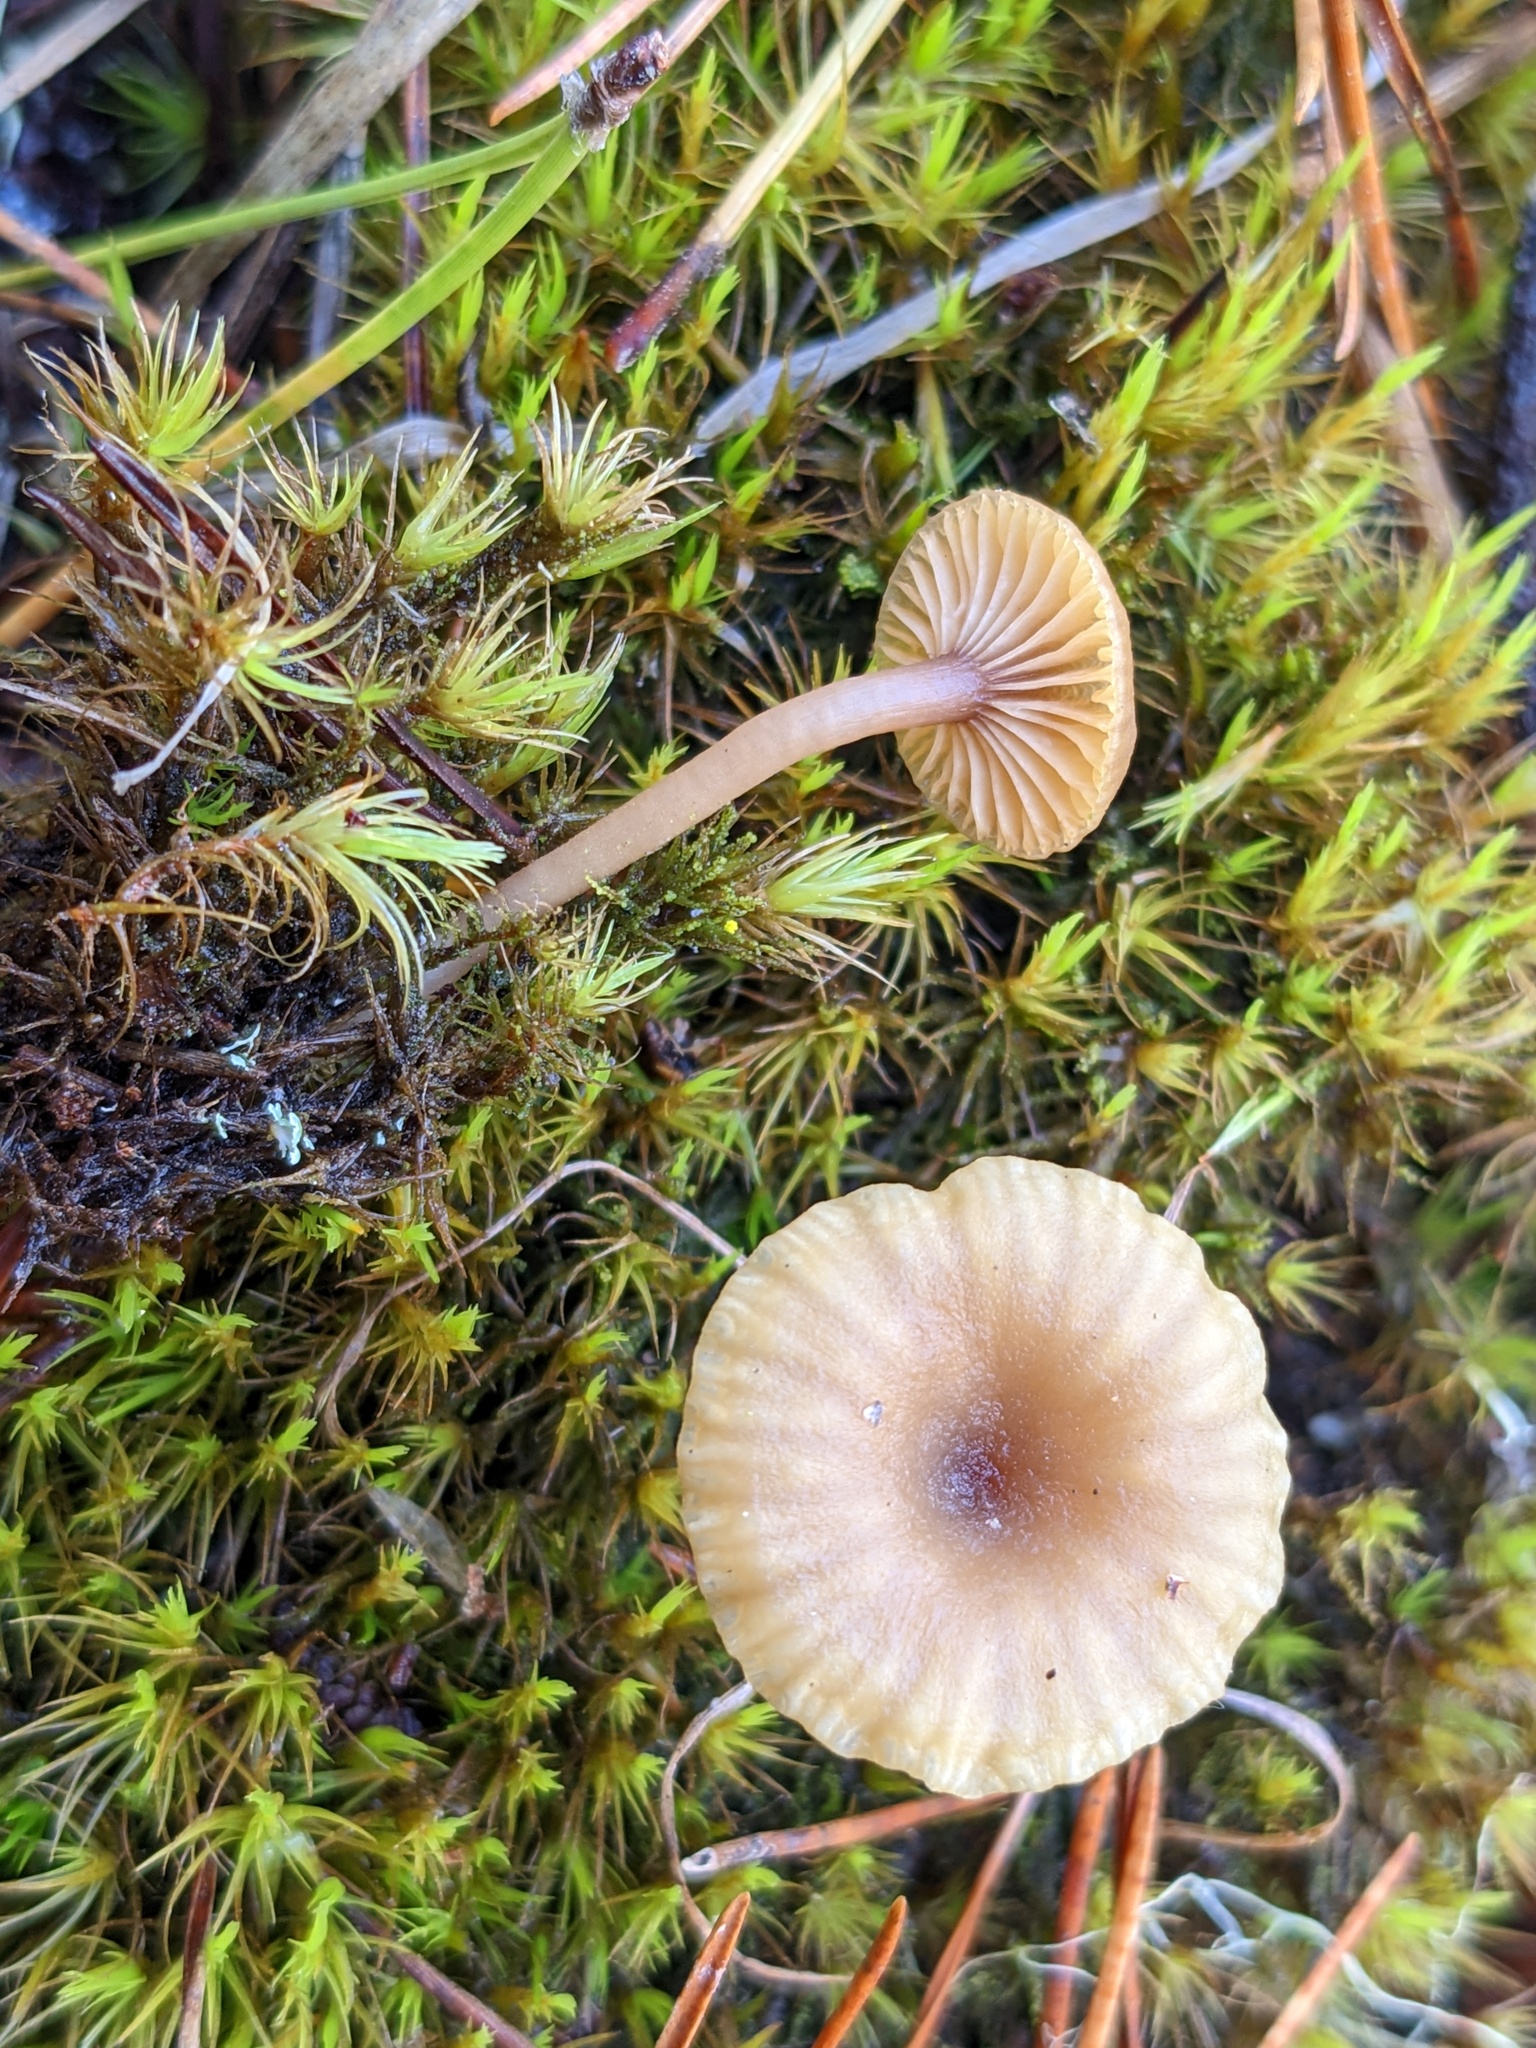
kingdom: Fungi
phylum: Basidiomycota
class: Agaricomycetes
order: Agaricales
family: Hygrophoraceae
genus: Lichenomphalia
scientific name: Lichenomphalia
